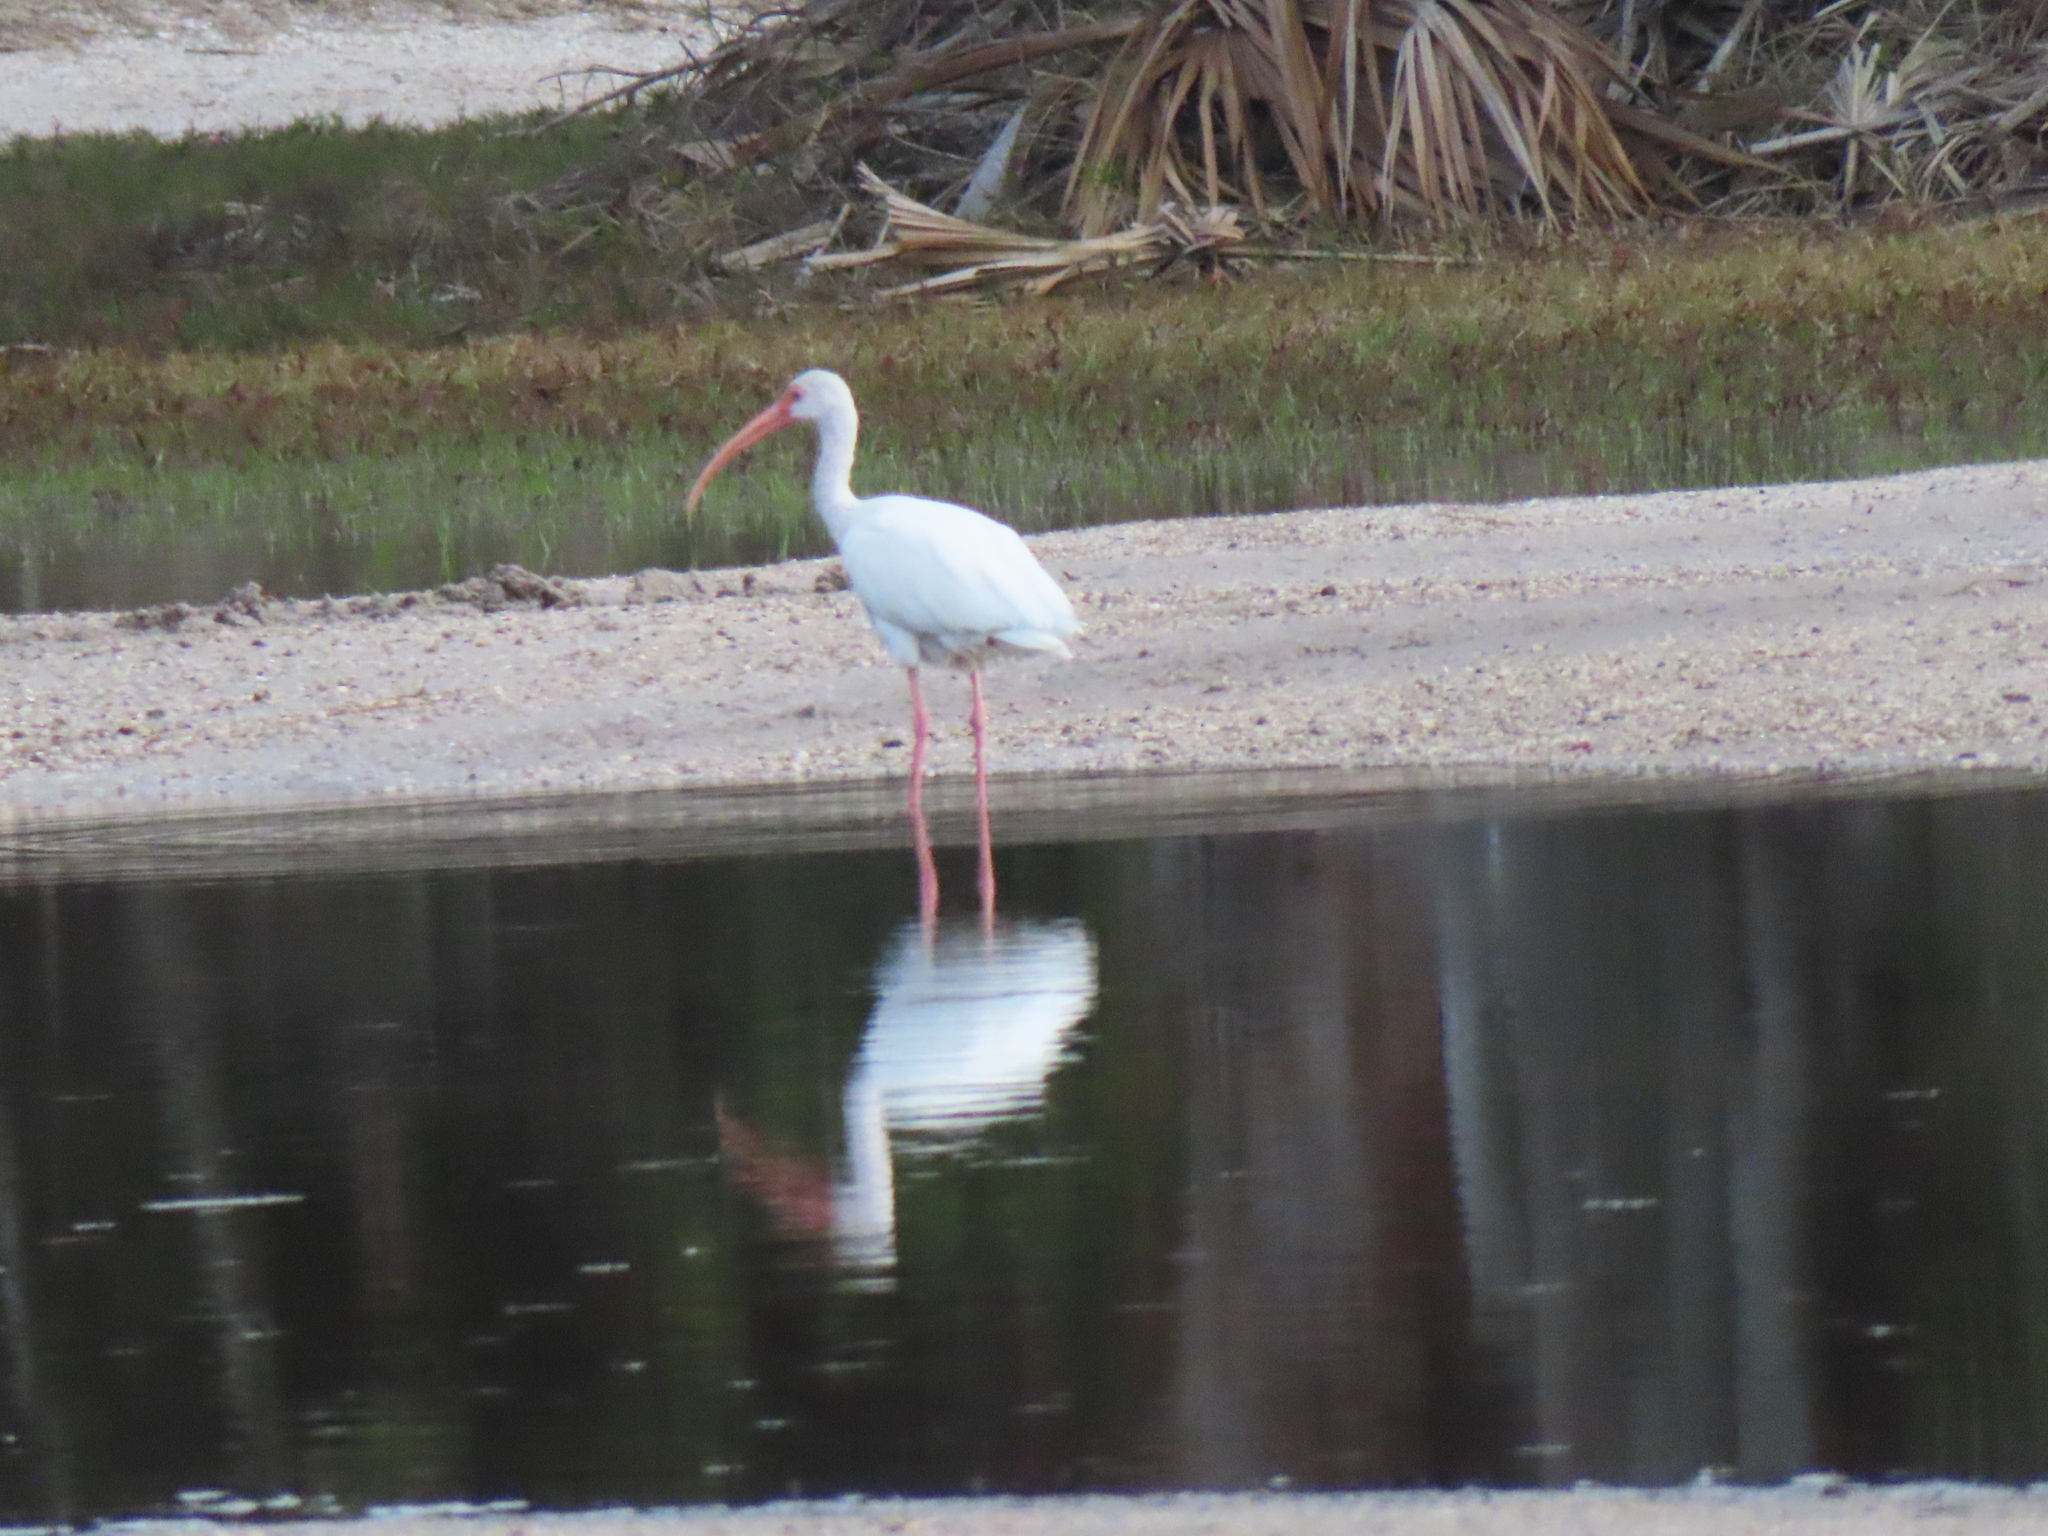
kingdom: Animalia
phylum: Chordata
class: Aves
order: Pelecaniformes
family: Threskiornithidae
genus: Eudocimus
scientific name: Eudocimus albus
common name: White ibis
